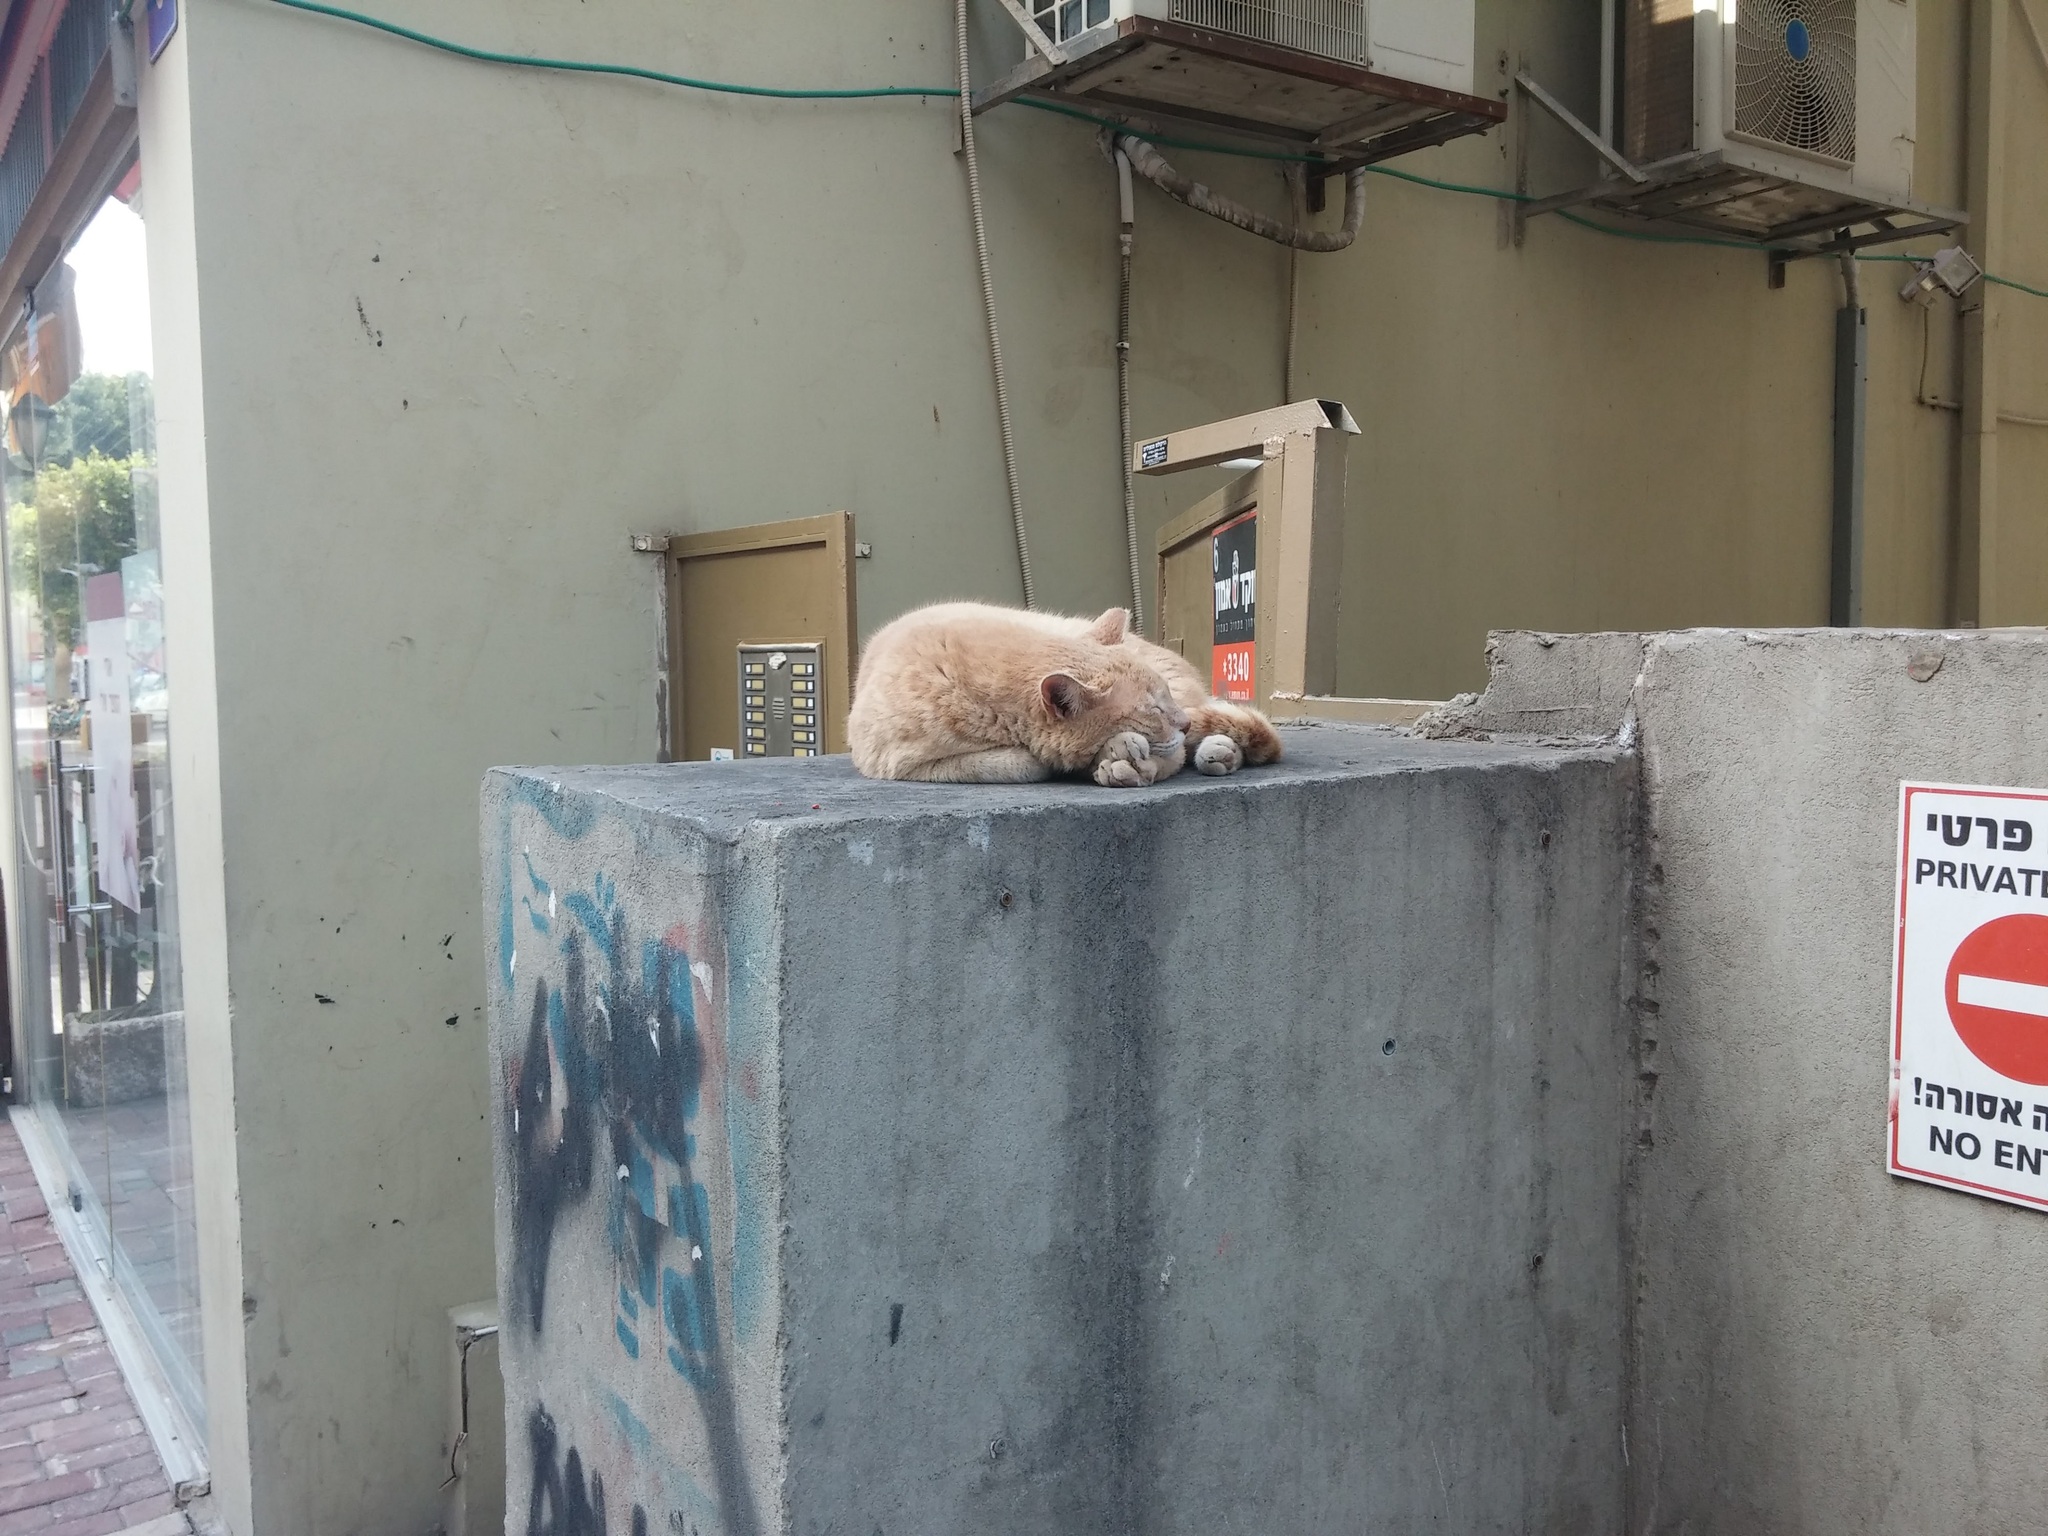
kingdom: Animalia
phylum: Chordata
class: Mammalia
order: Carnivora
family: Felidae
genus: Felis
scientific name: Felis catus
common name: Domestic cat
